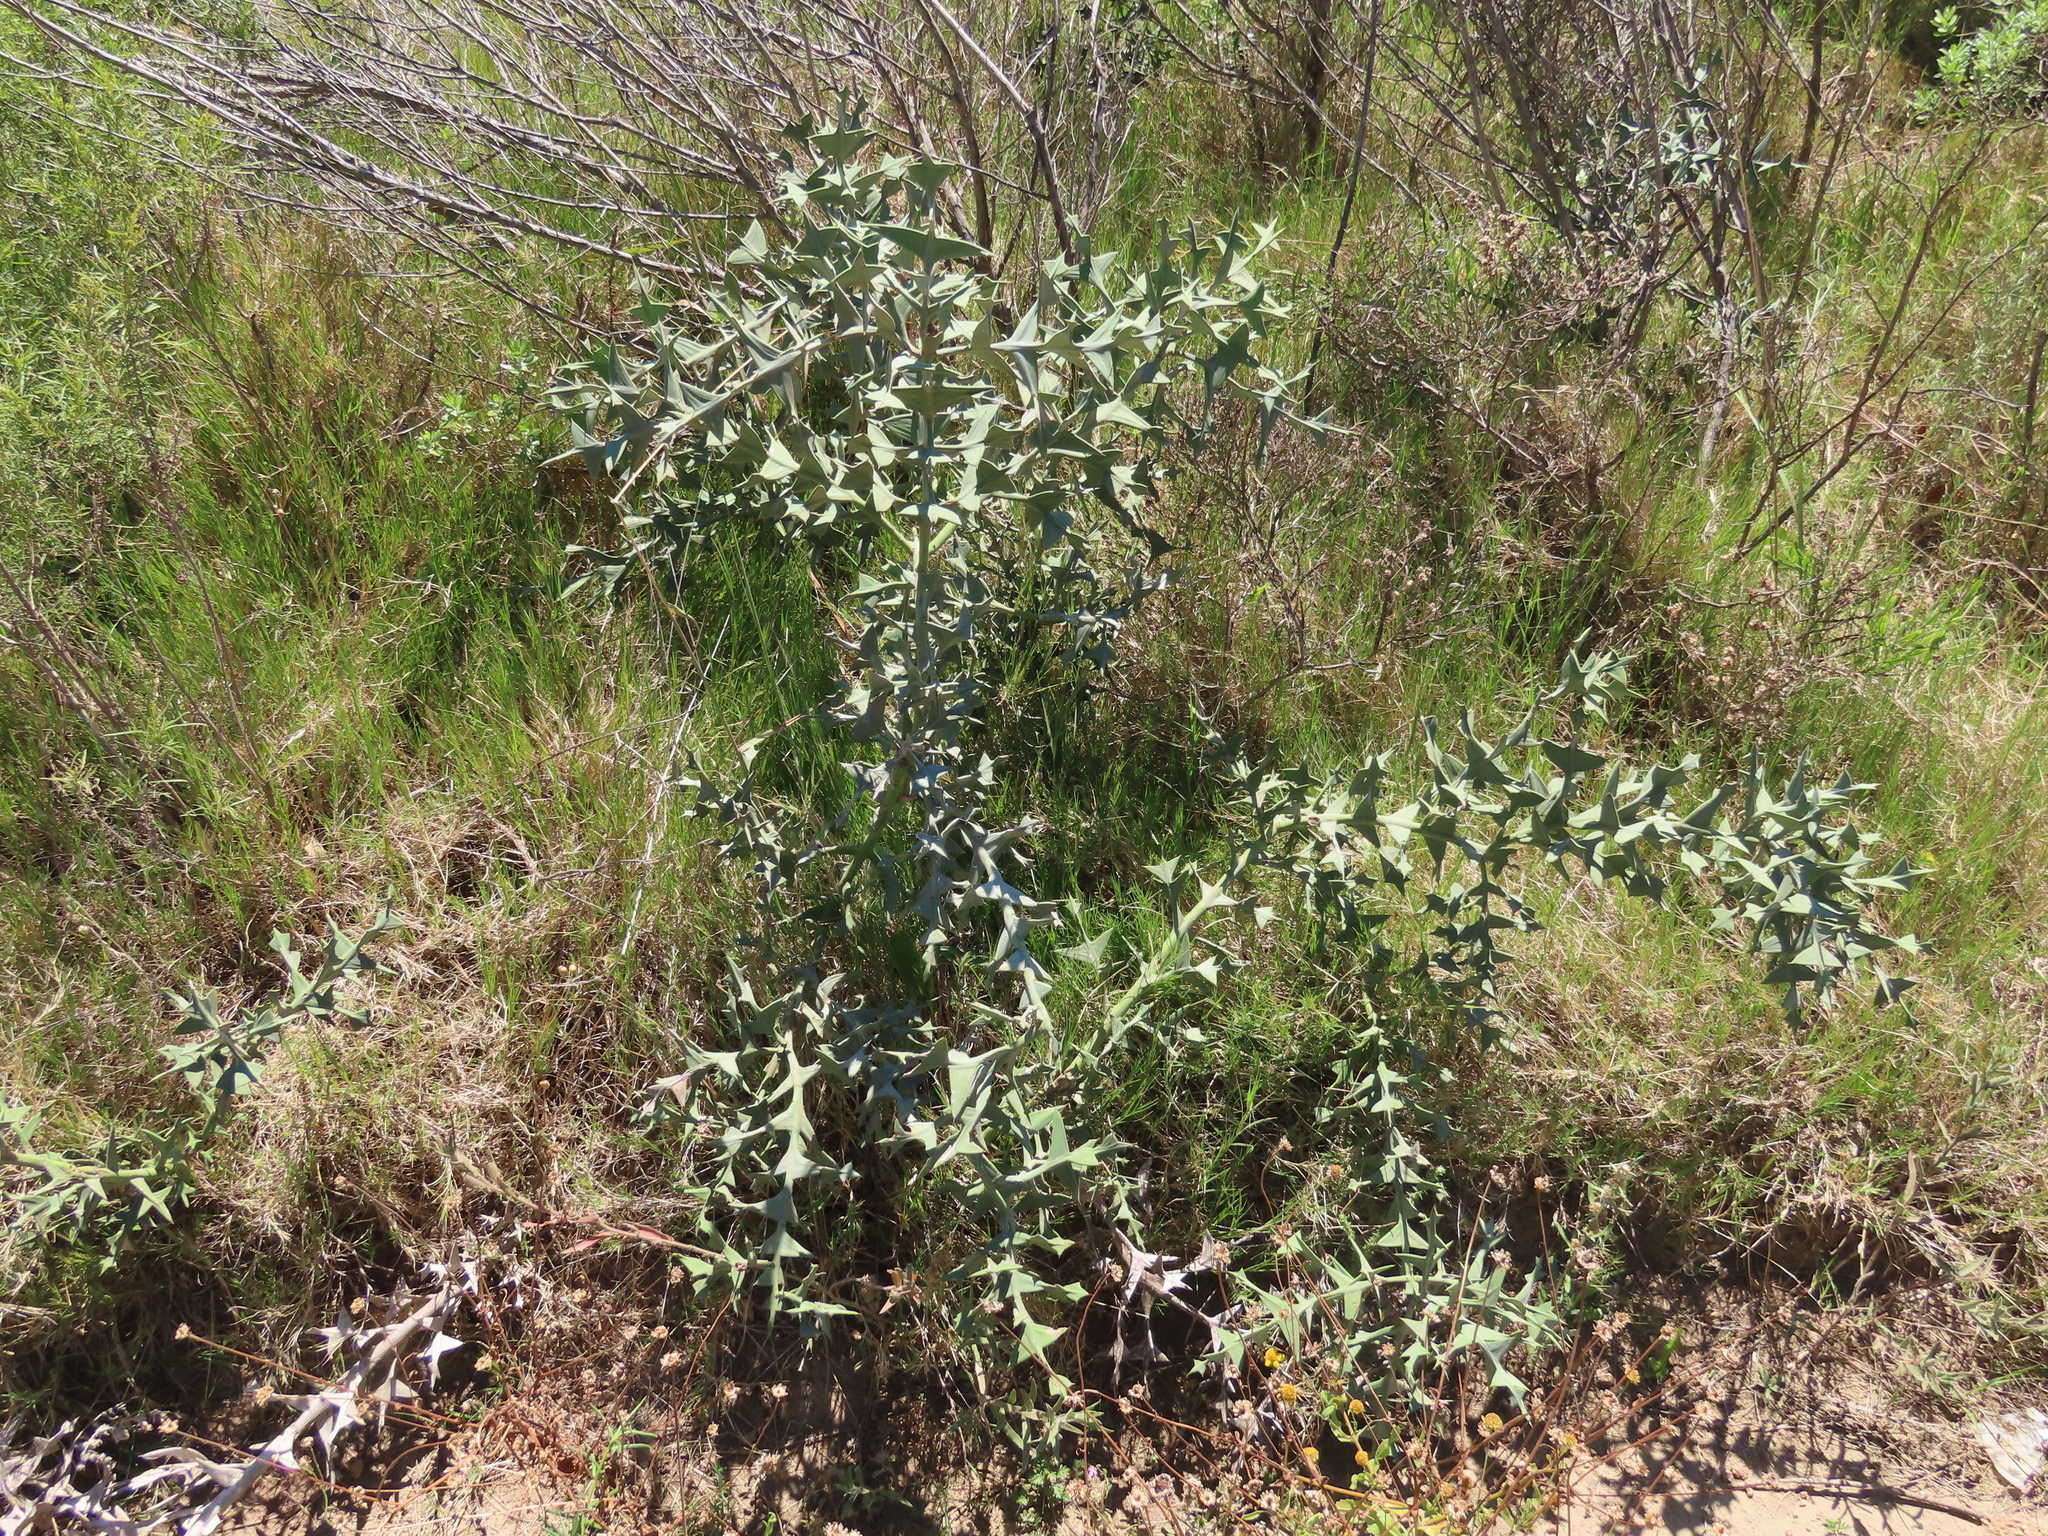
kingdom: Plantae
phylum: Tracheophyta
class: Magnoliopsida
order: Rosales
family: Rhamnaceae
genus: Colletia
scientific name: Colletia paradoxa
